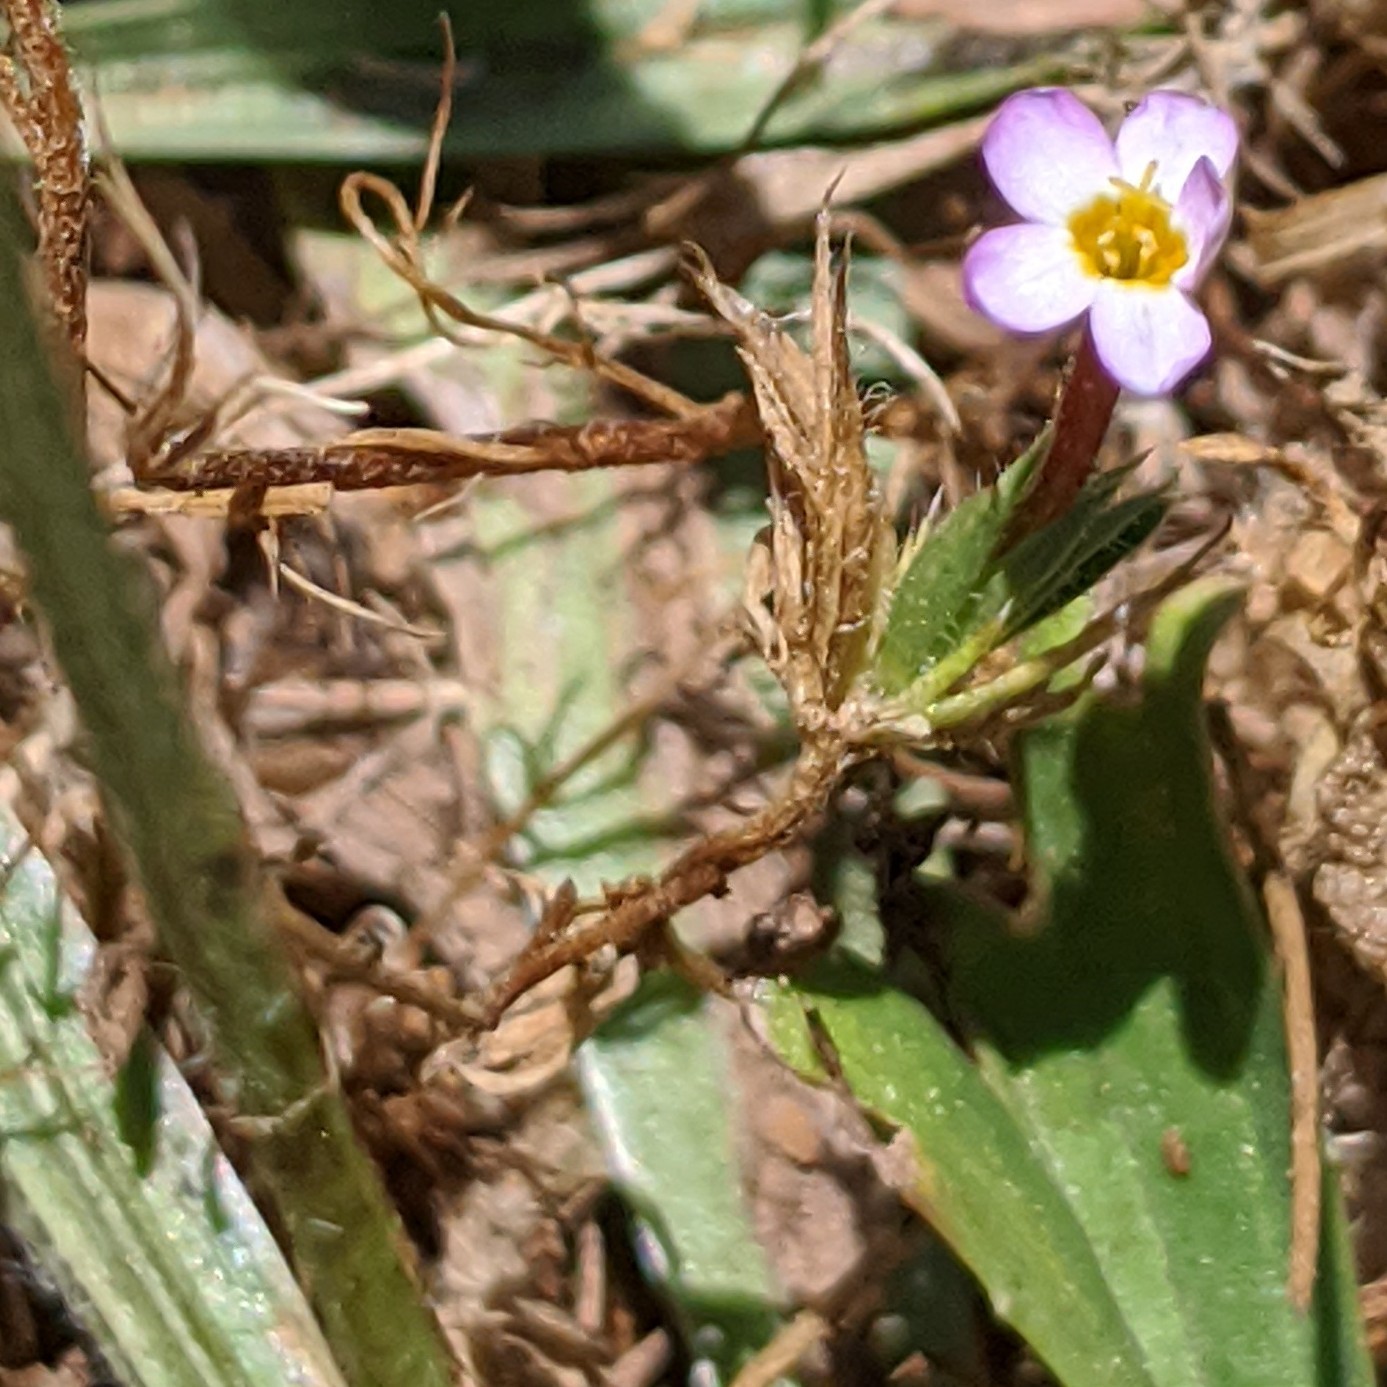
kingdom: Plantae
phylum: Tracheophyta
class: Magnoliopsida
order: Ericales
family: Polemoniaceae
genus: Leptosiphon
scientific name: Leptosiphon bicolor
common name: True babystars
